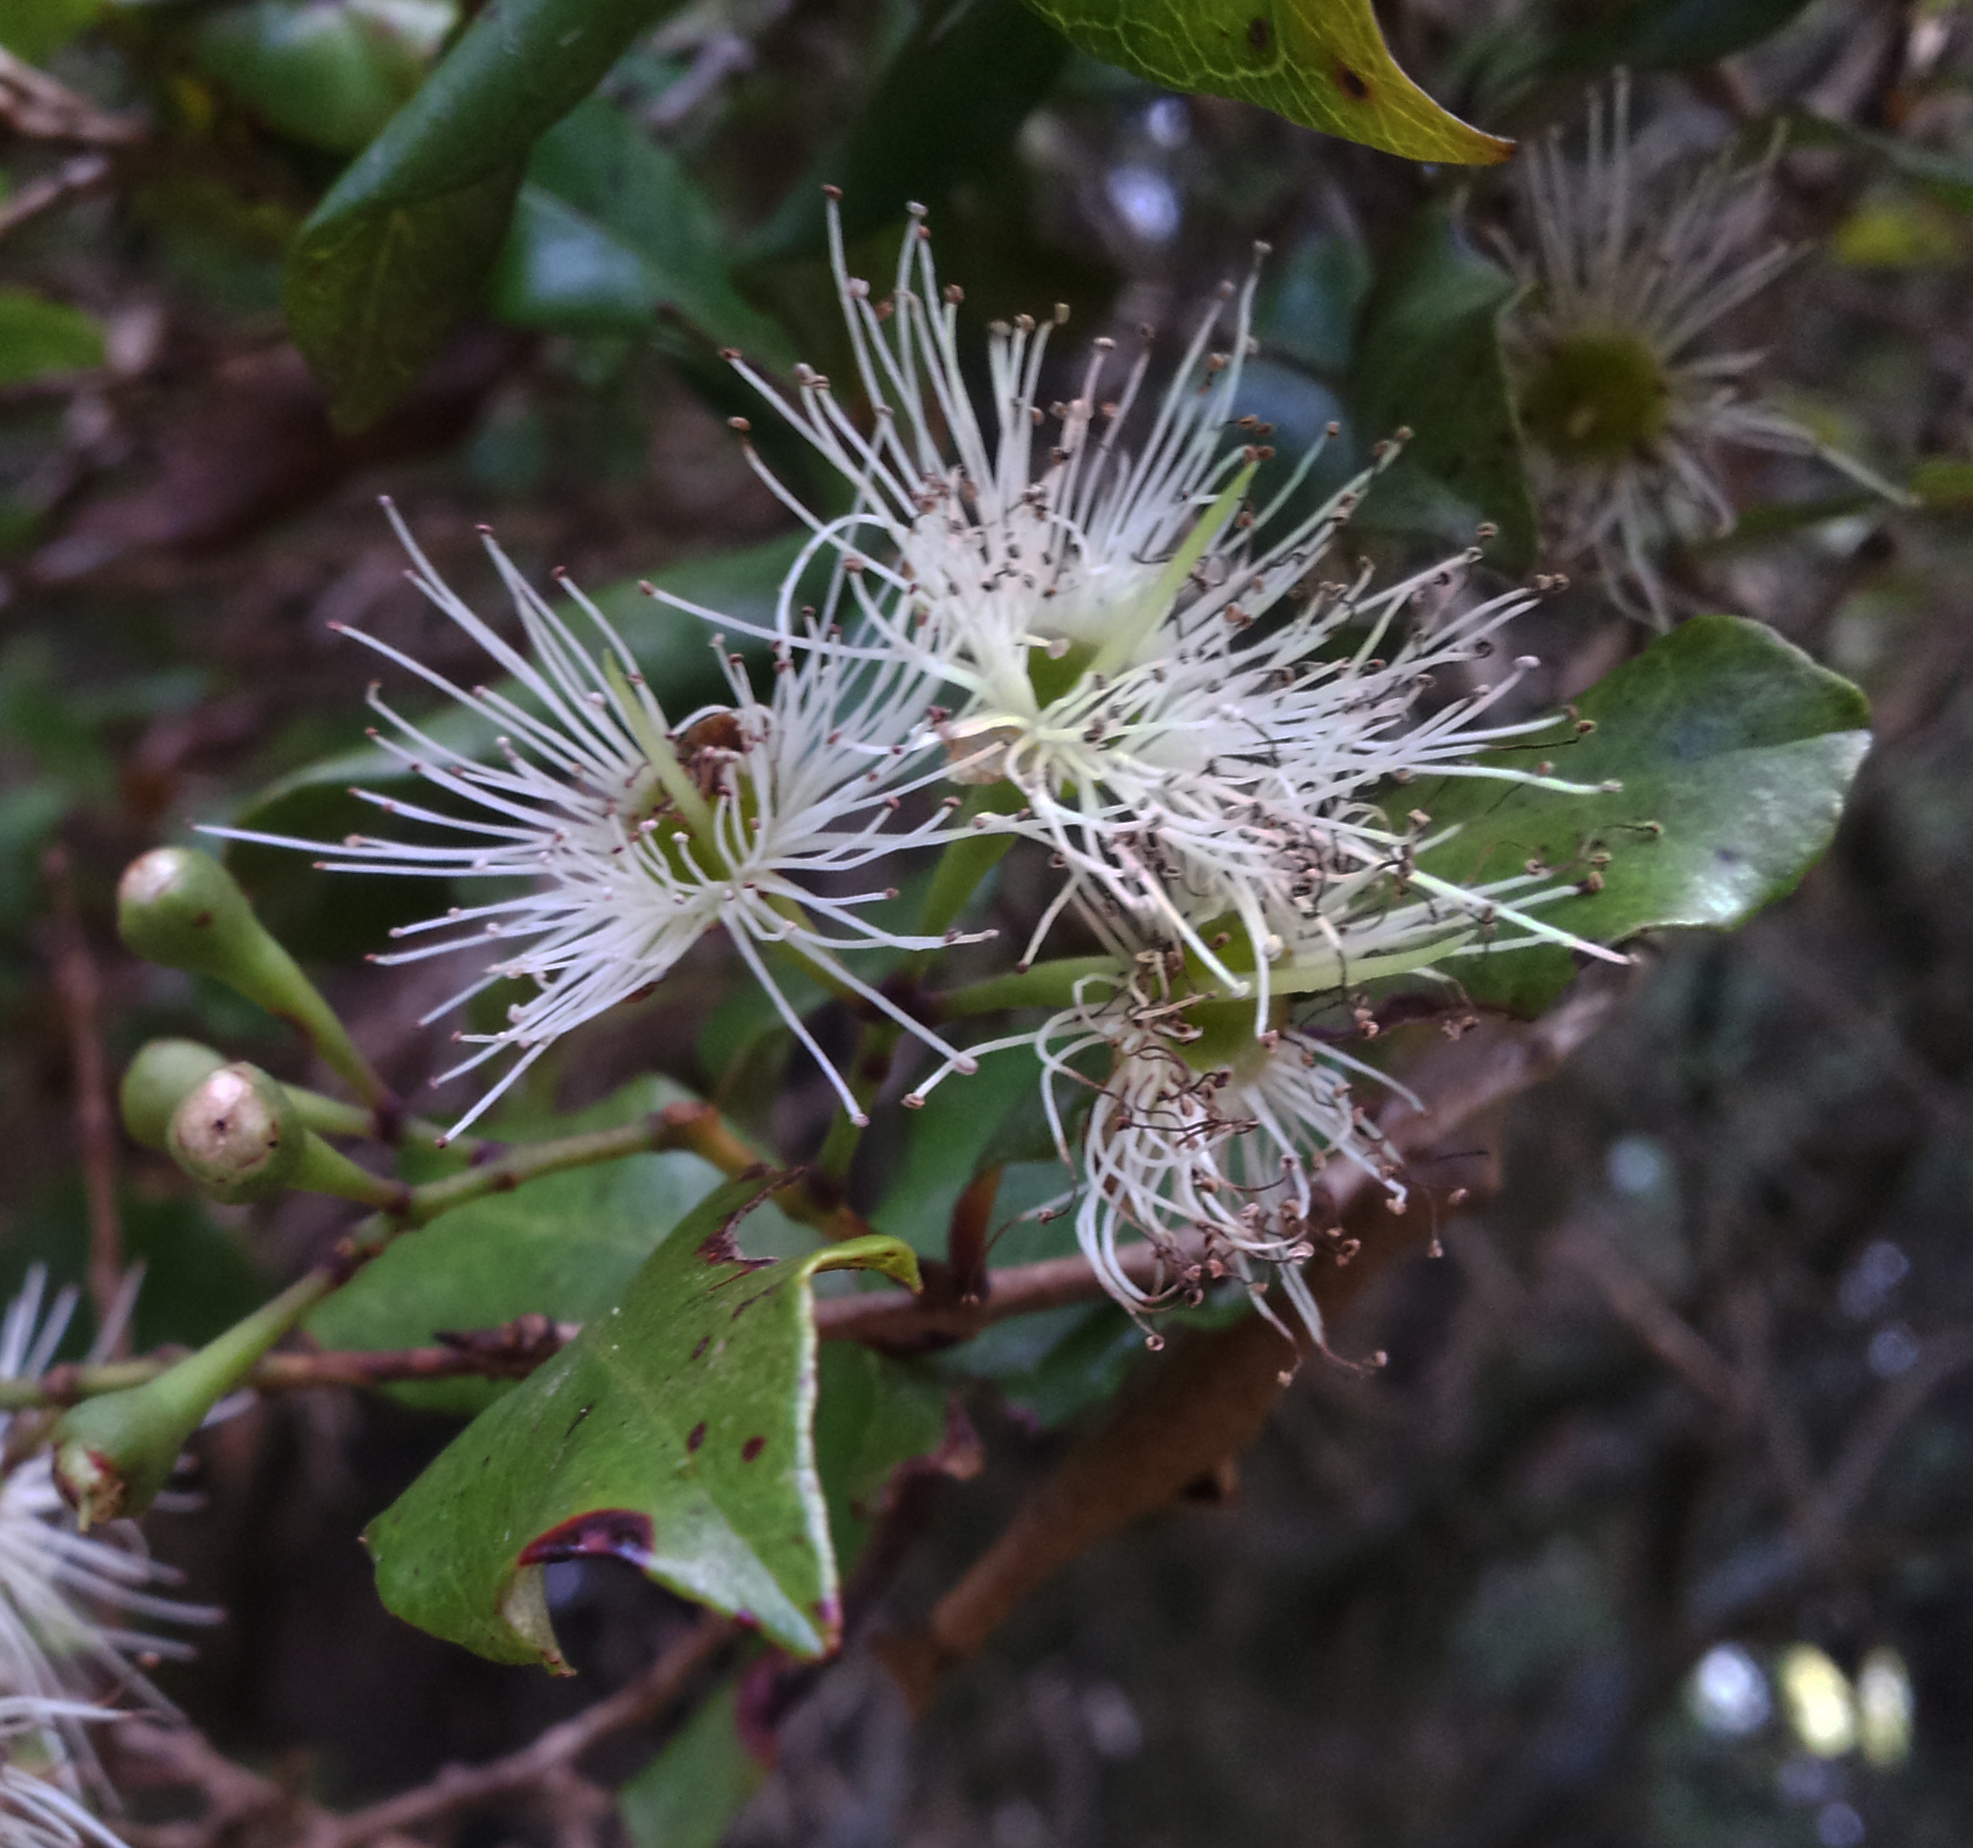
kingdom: Plantae
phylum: Tracheophyta
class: Magnoliopsida
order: Myrtales
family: Myrtaceae
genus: Syzygium
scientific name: Syzygium maire
